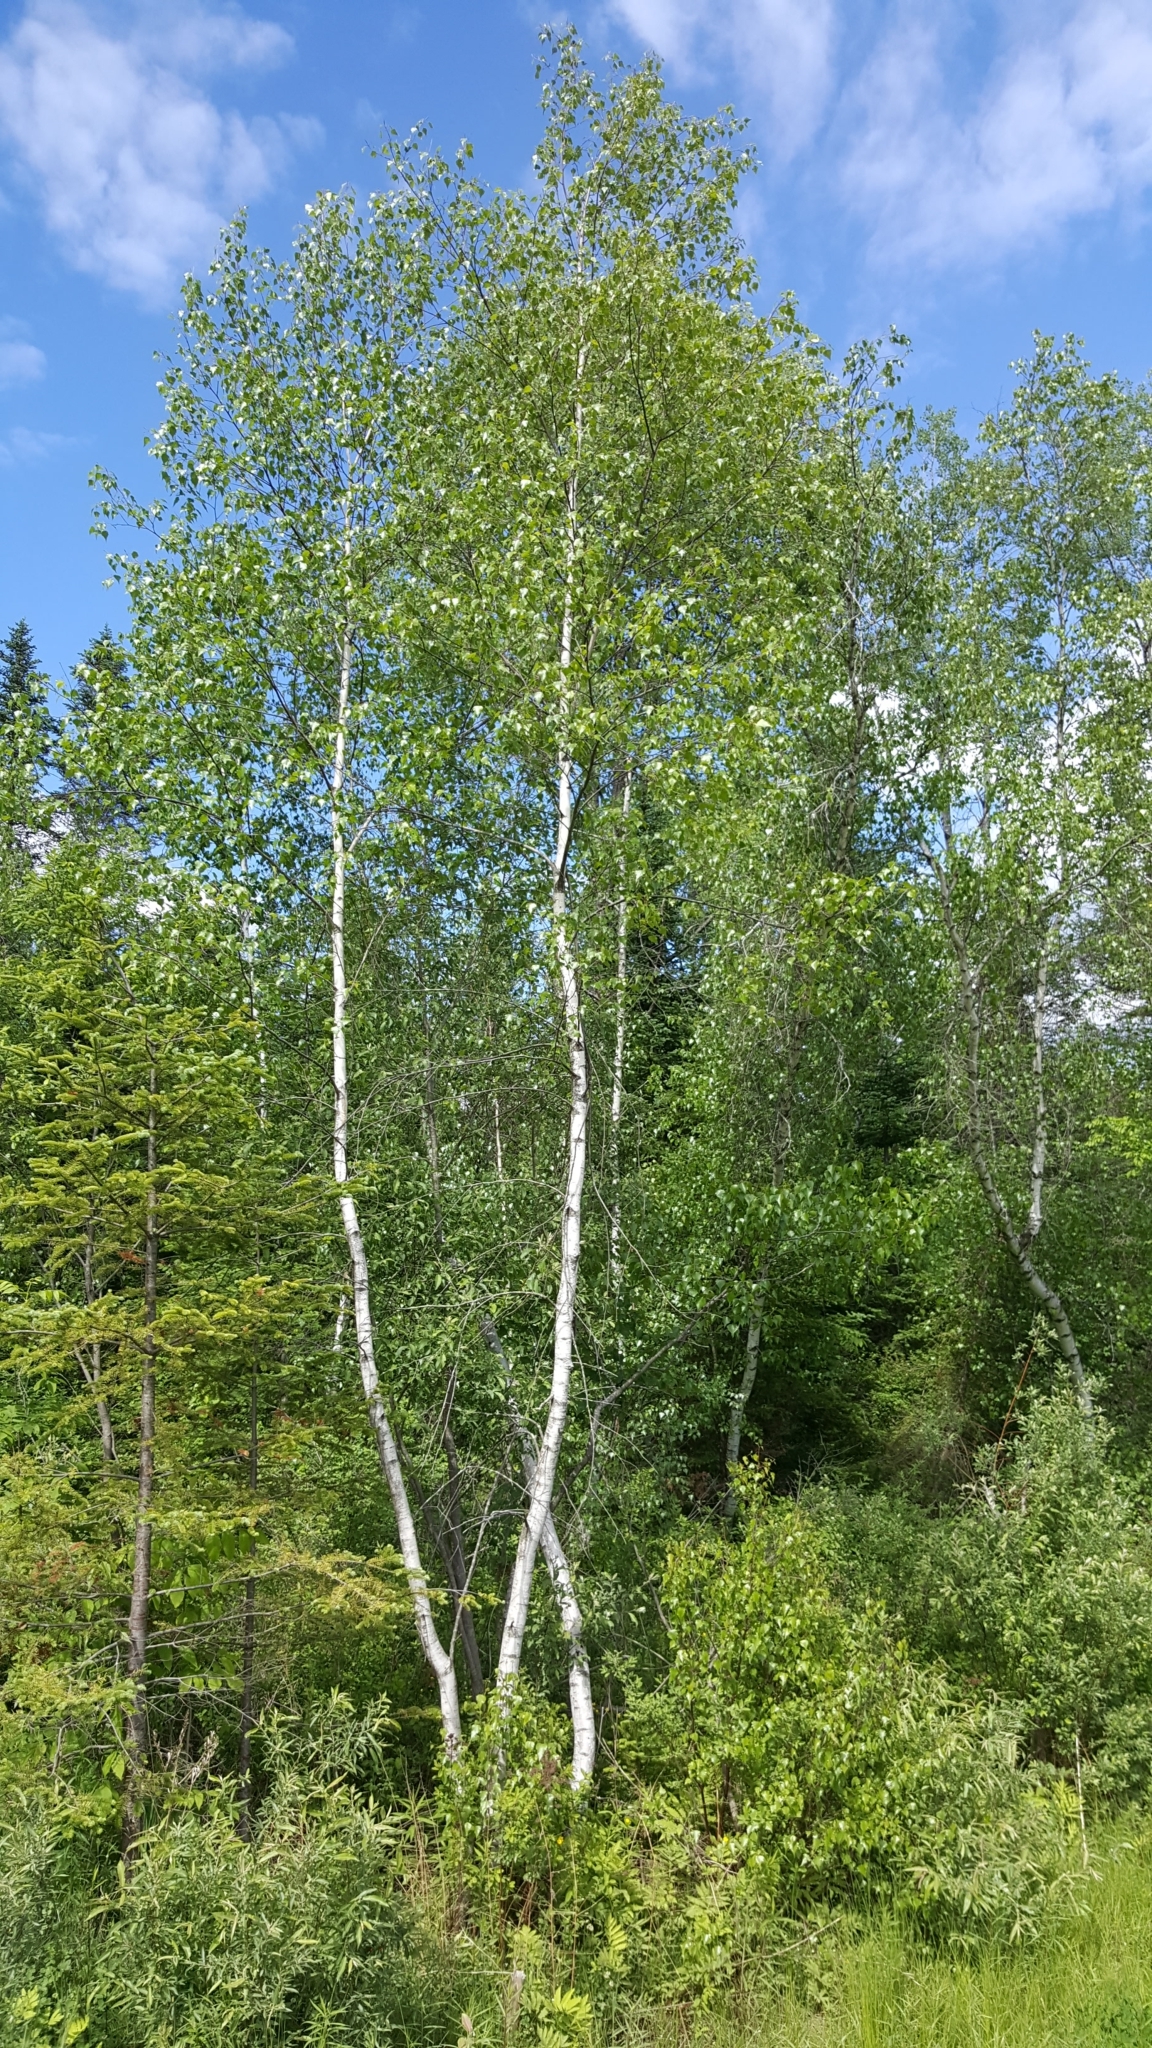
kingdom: Plantae
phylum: Tracheophyta
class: Magnoliopsida
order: Fagales
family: Betulaceae
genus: Betula
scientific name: Betula populifolia
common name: Fire birch
